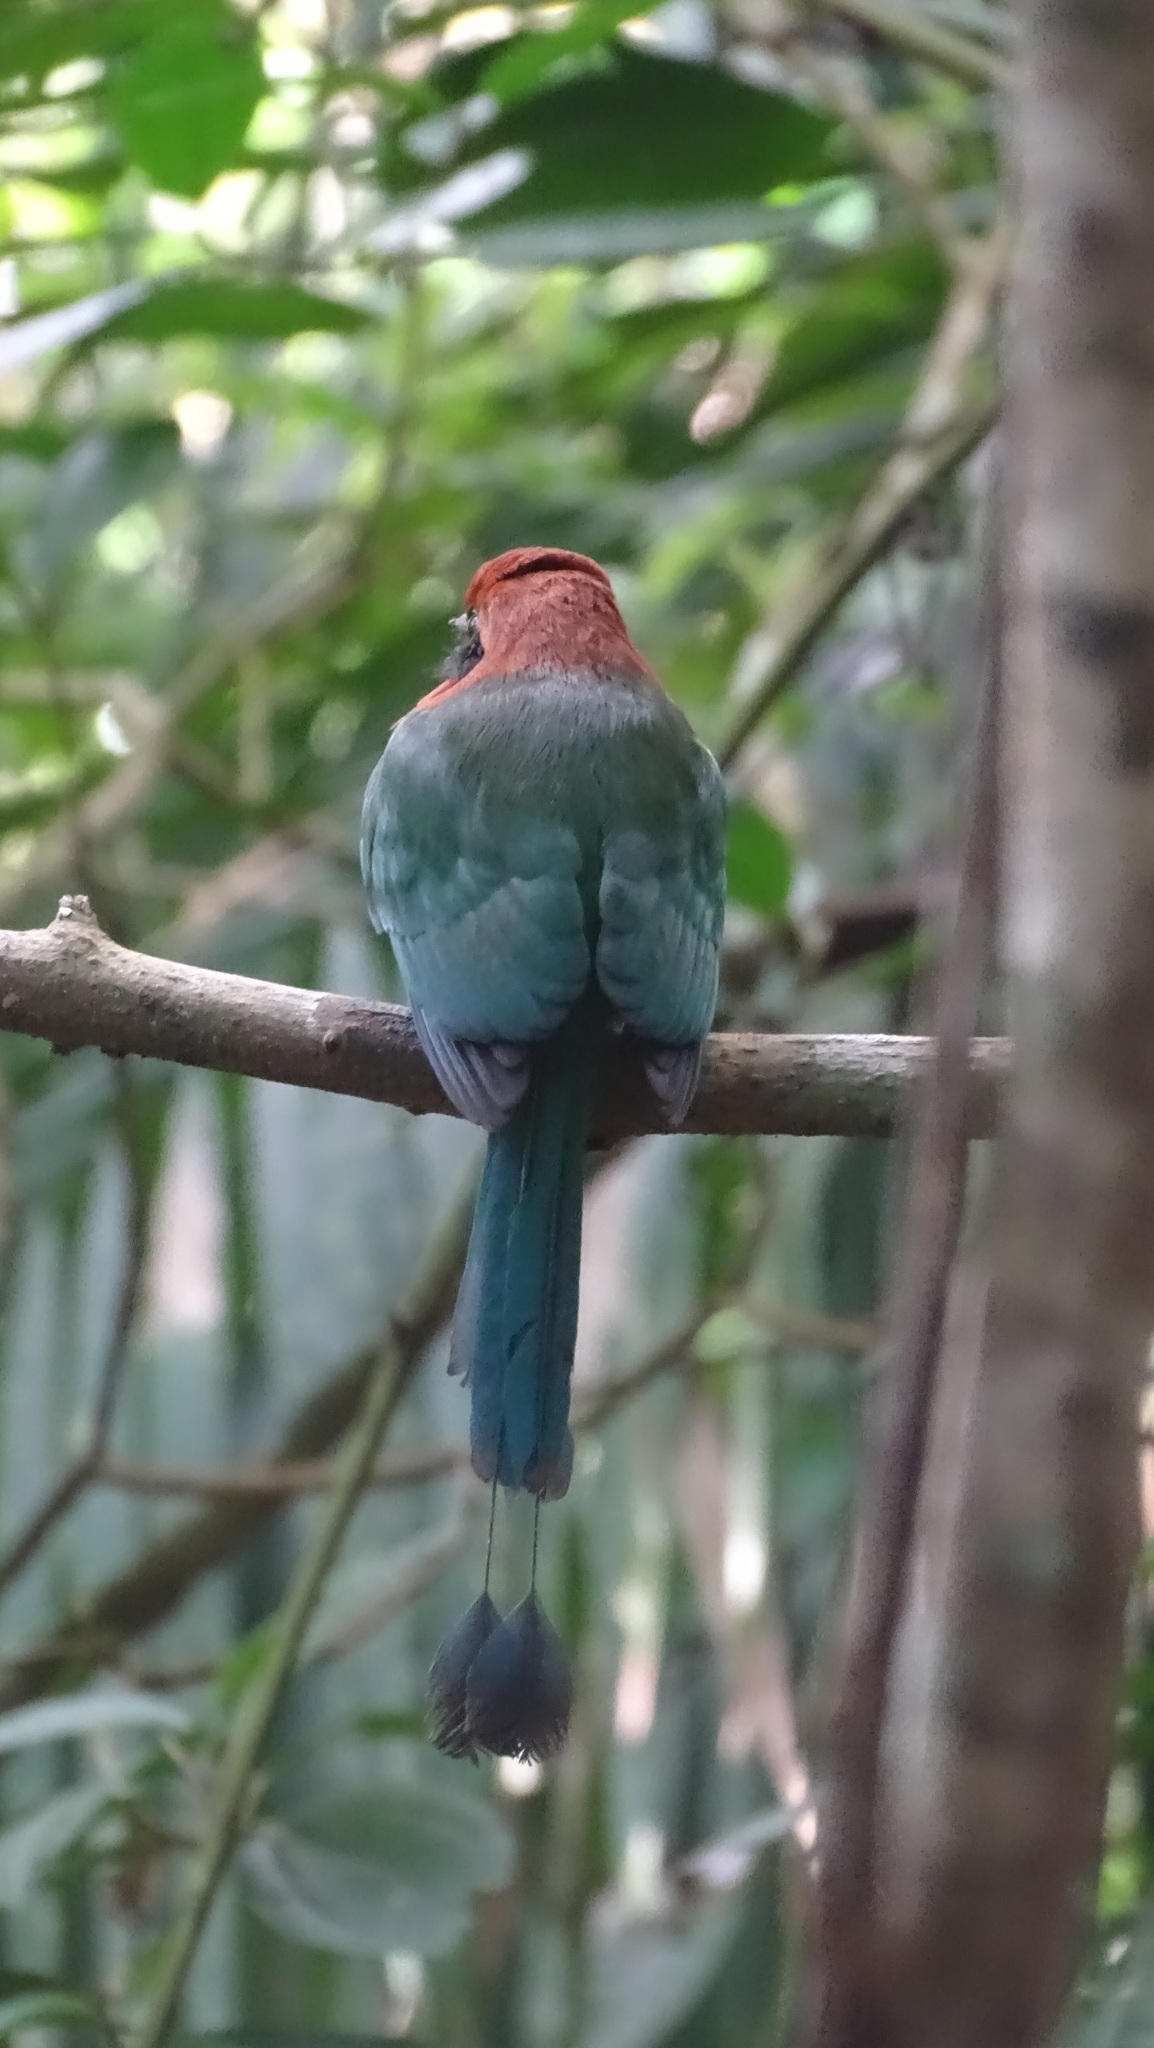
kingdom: Animalia
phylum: Chordata
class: Aves
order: Coraciiformes
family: Momotidae
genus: Electron
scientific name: Electron platyrhynchum
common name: Broad-billed motmot
